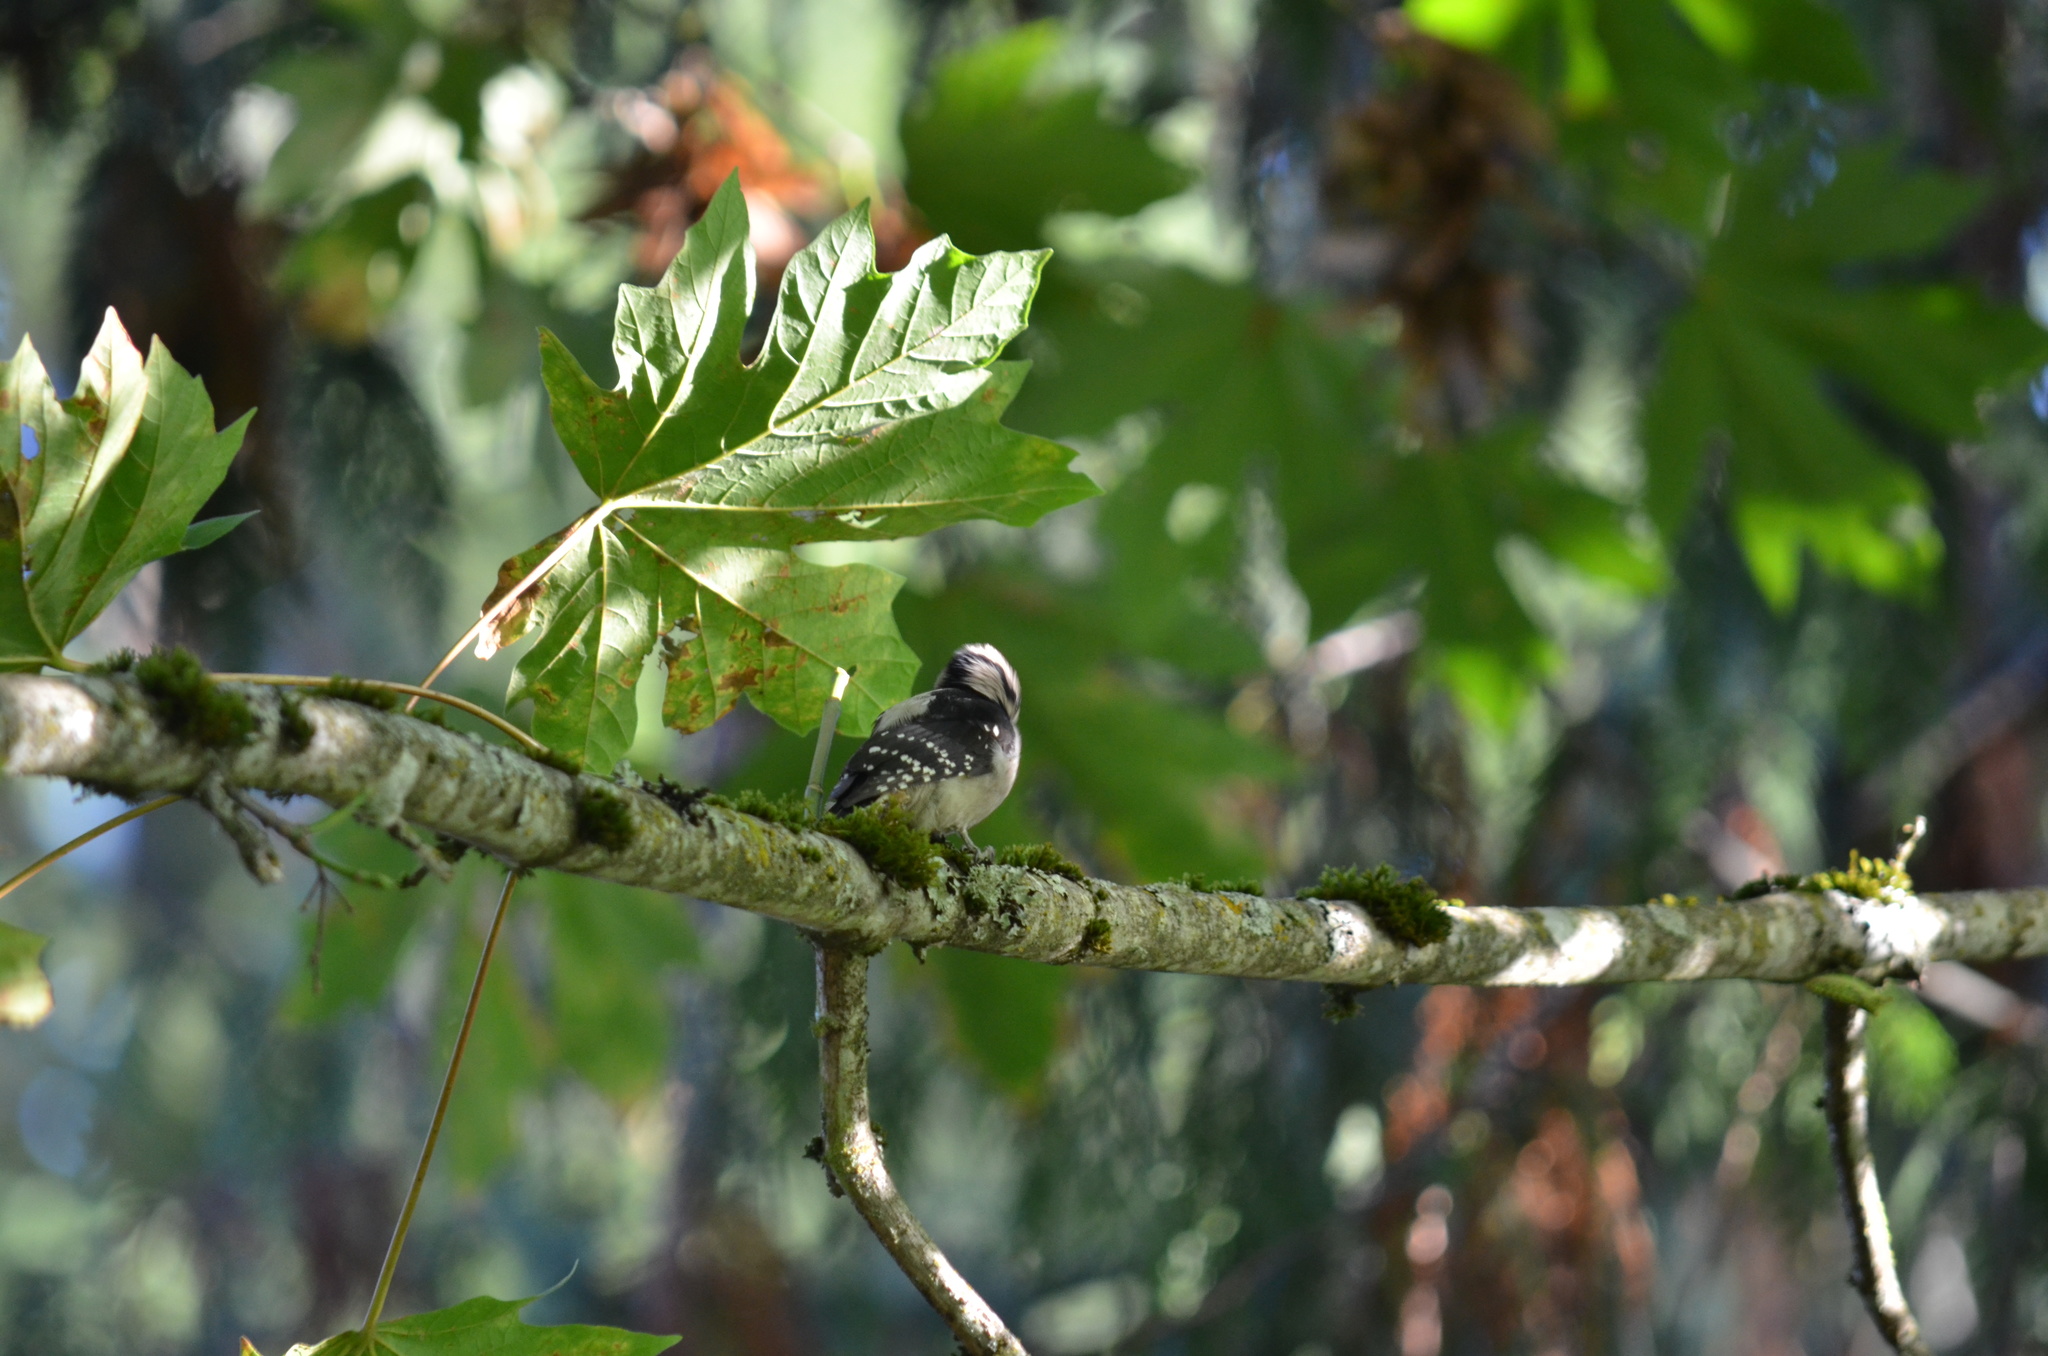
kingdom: Animalia
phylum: Chordata
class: Aves
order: Piciformes
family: Picidae
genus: Dryobates
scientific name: Dryobates pubescens
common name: Downy woodpecker
